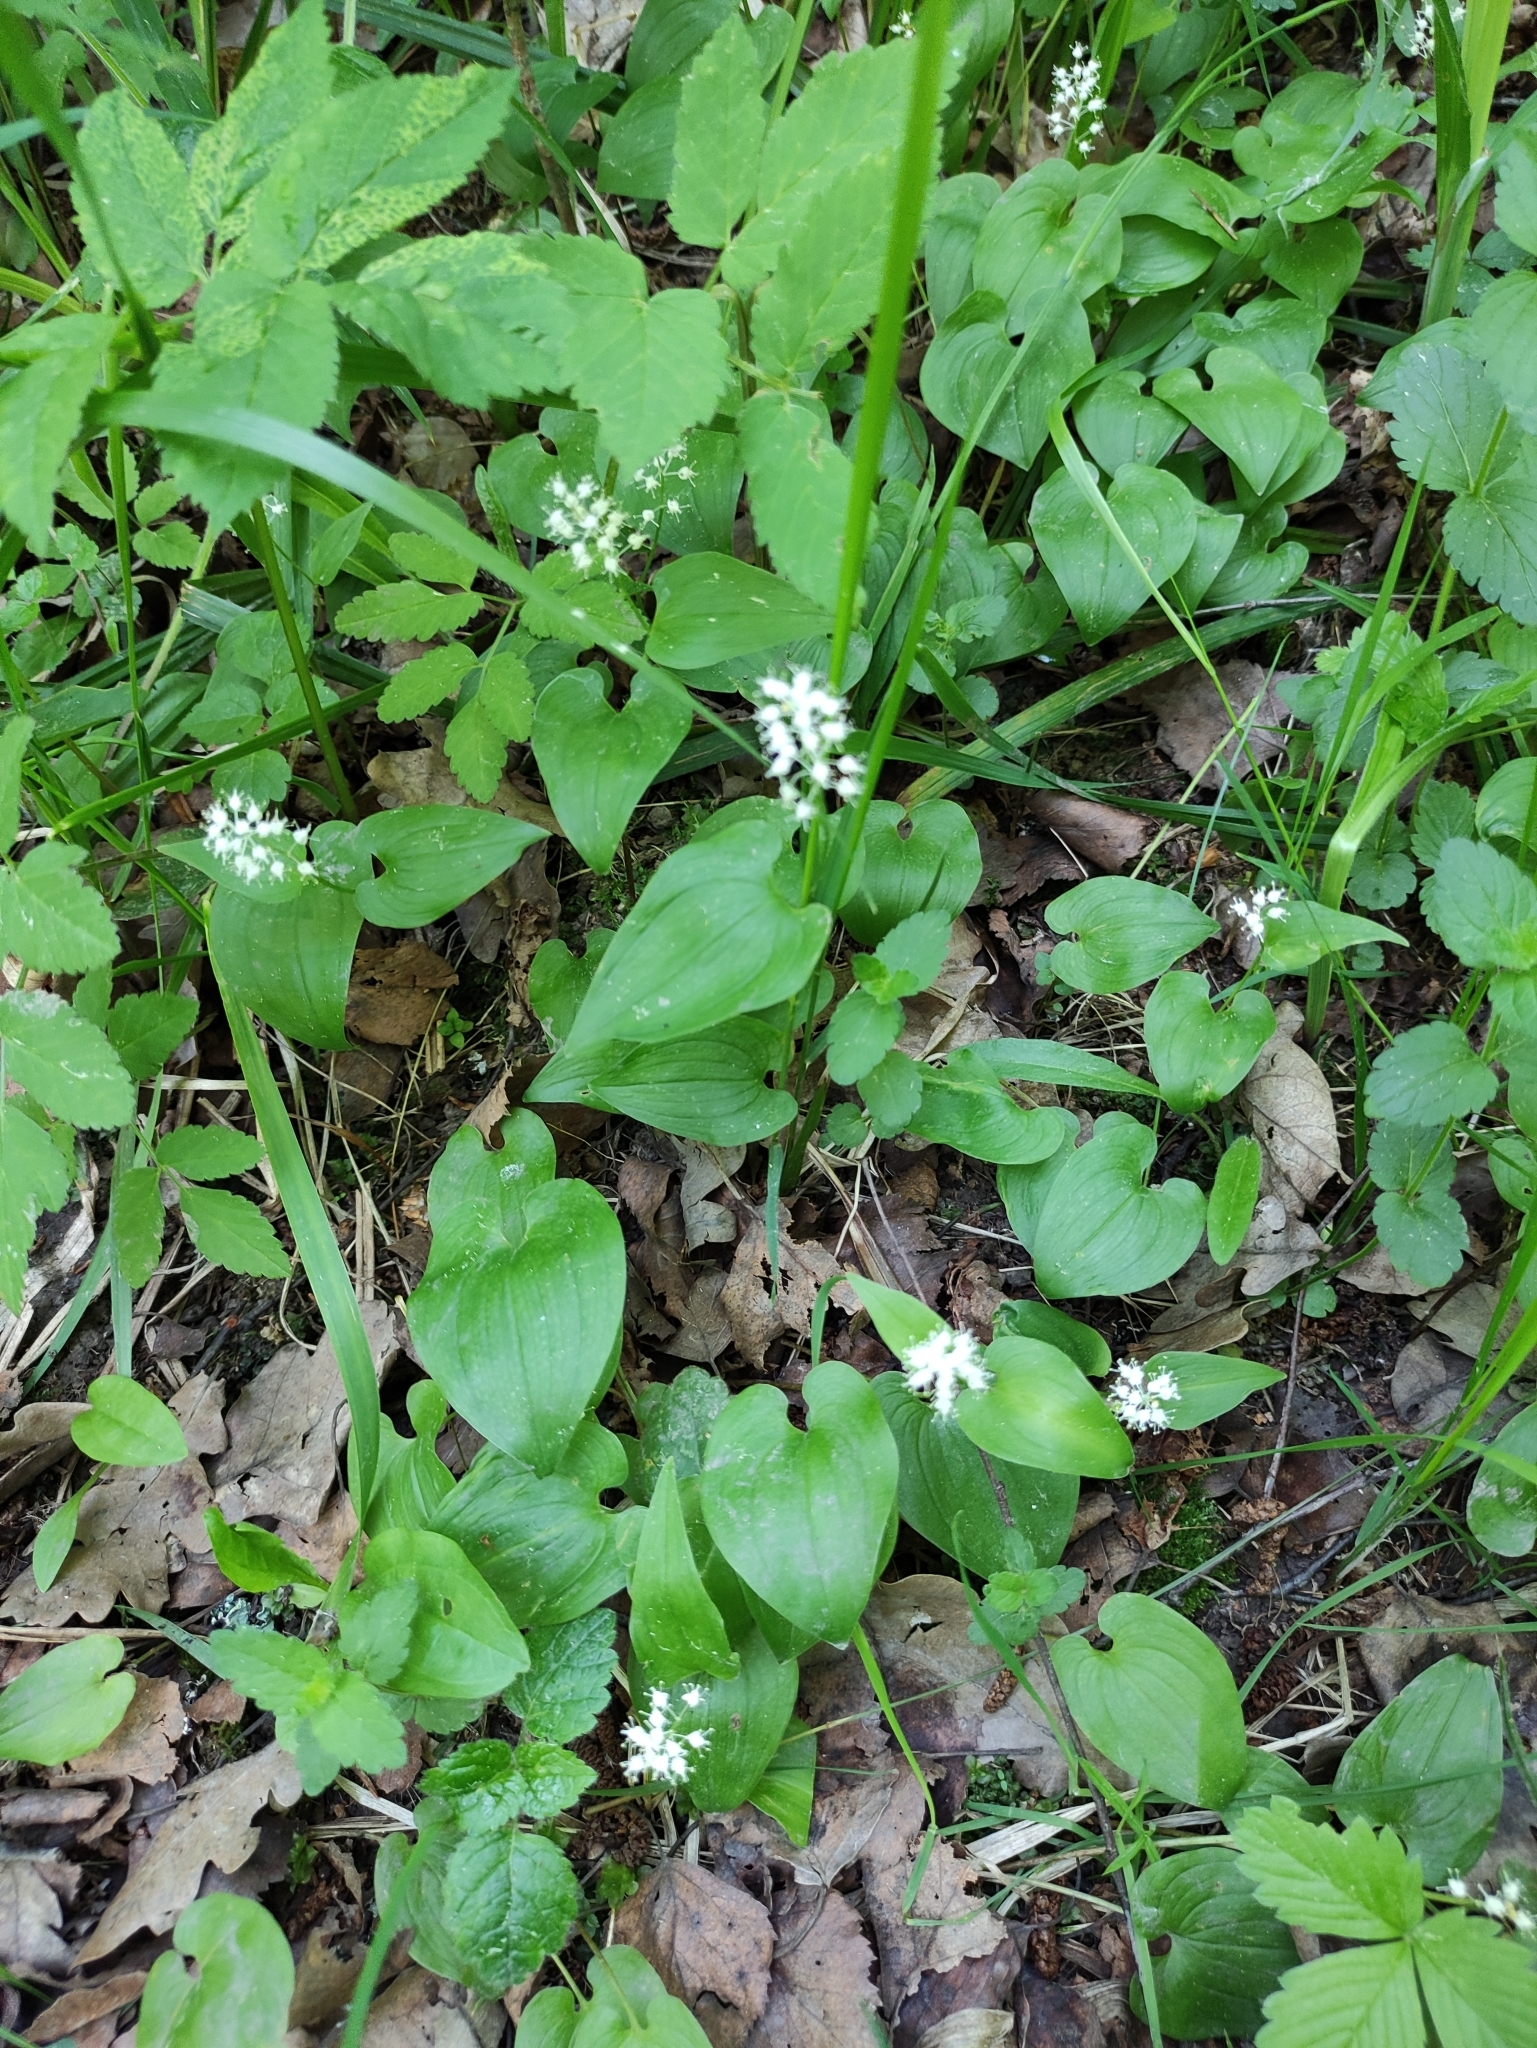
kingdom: Plantae
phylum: Tracheophyta
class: Liliopsida
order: Asparagales
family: Asparagaceae
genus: Maianthemum
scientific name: Maianthemum bifolium
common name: May lily
